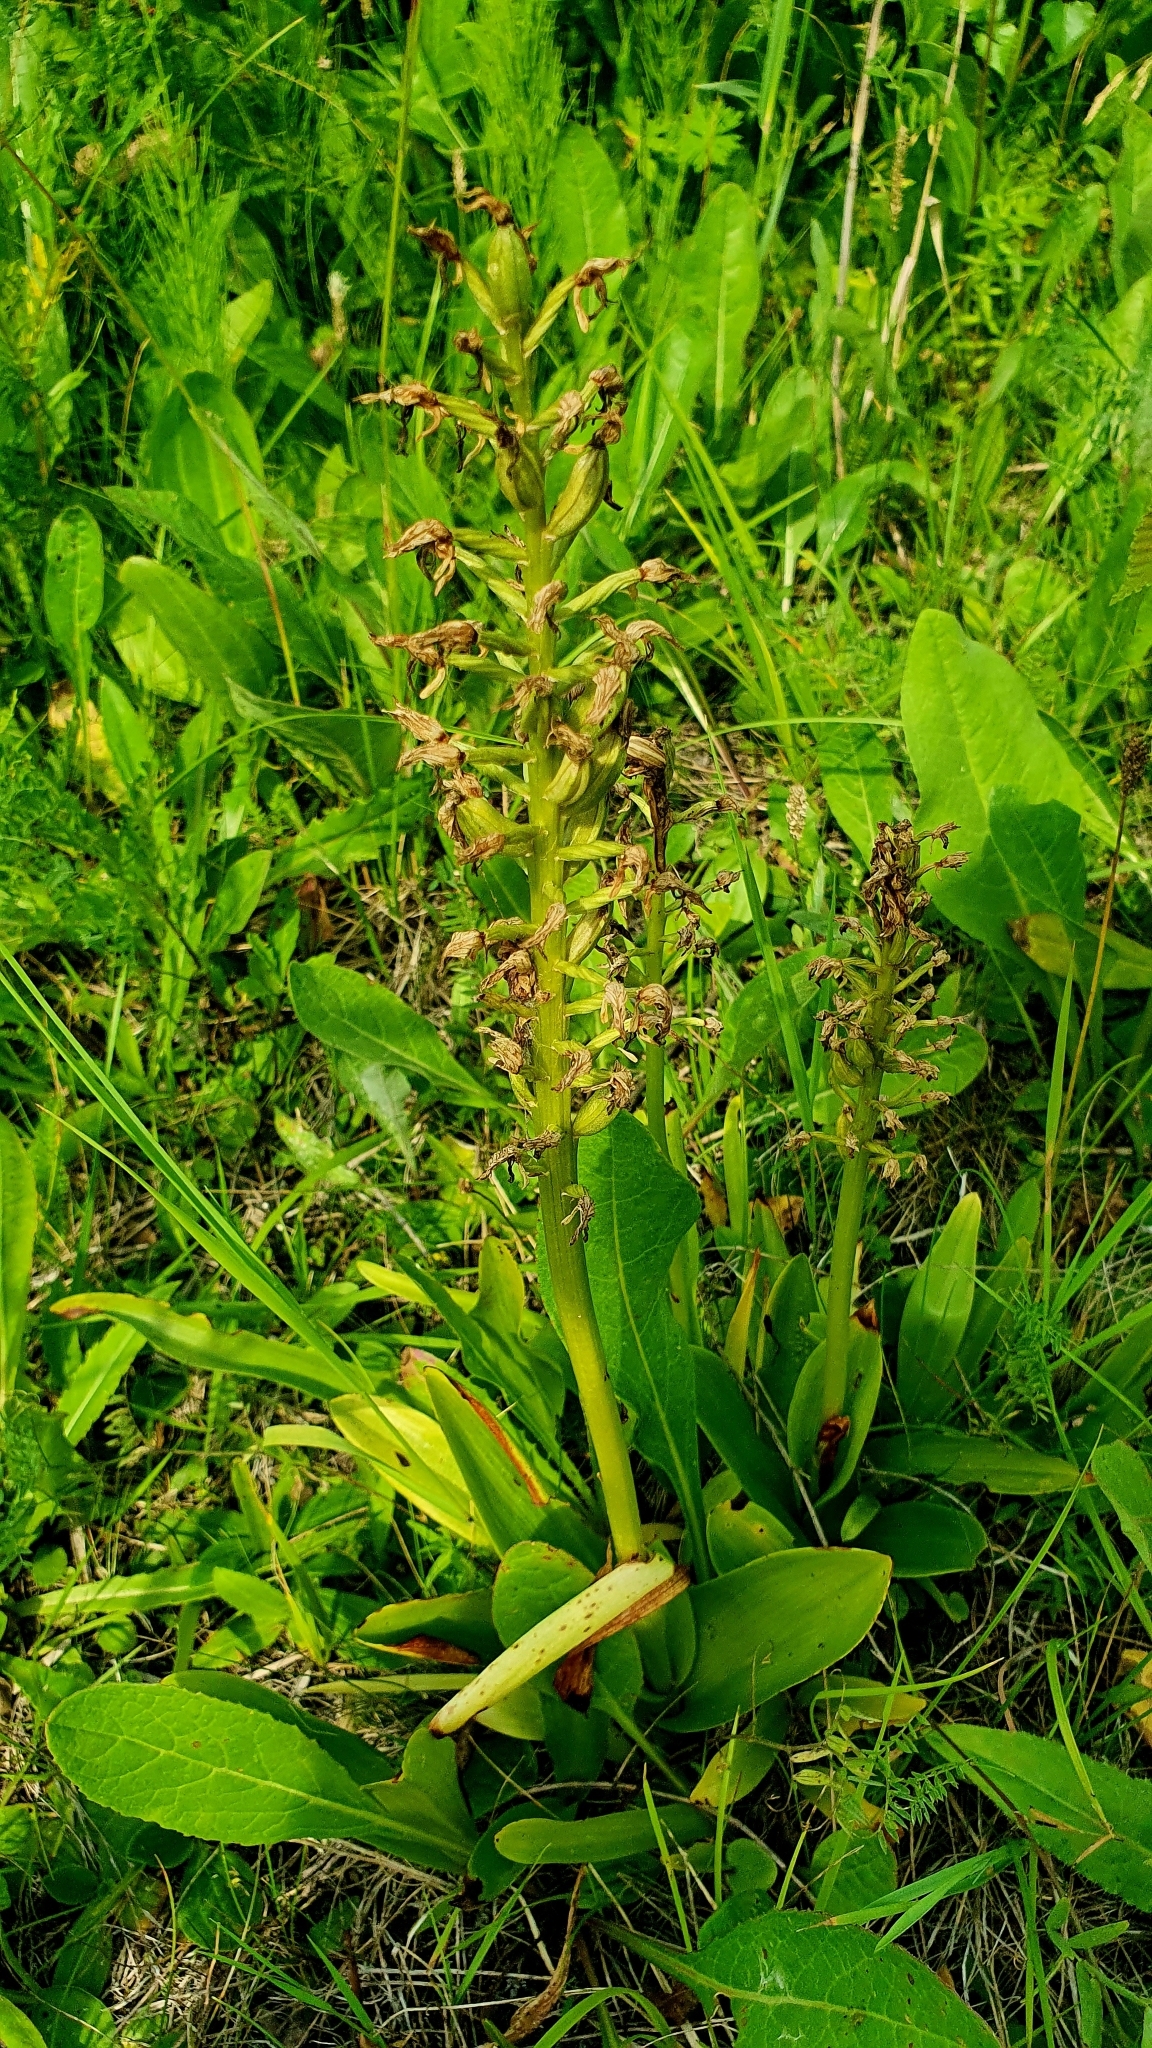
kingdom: Plantae
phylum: Tracheophyta
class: Liliopsida
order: Asparagales
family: Orchidaceae
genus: Orchis
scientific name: Orchis militaris
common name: Military orchid
